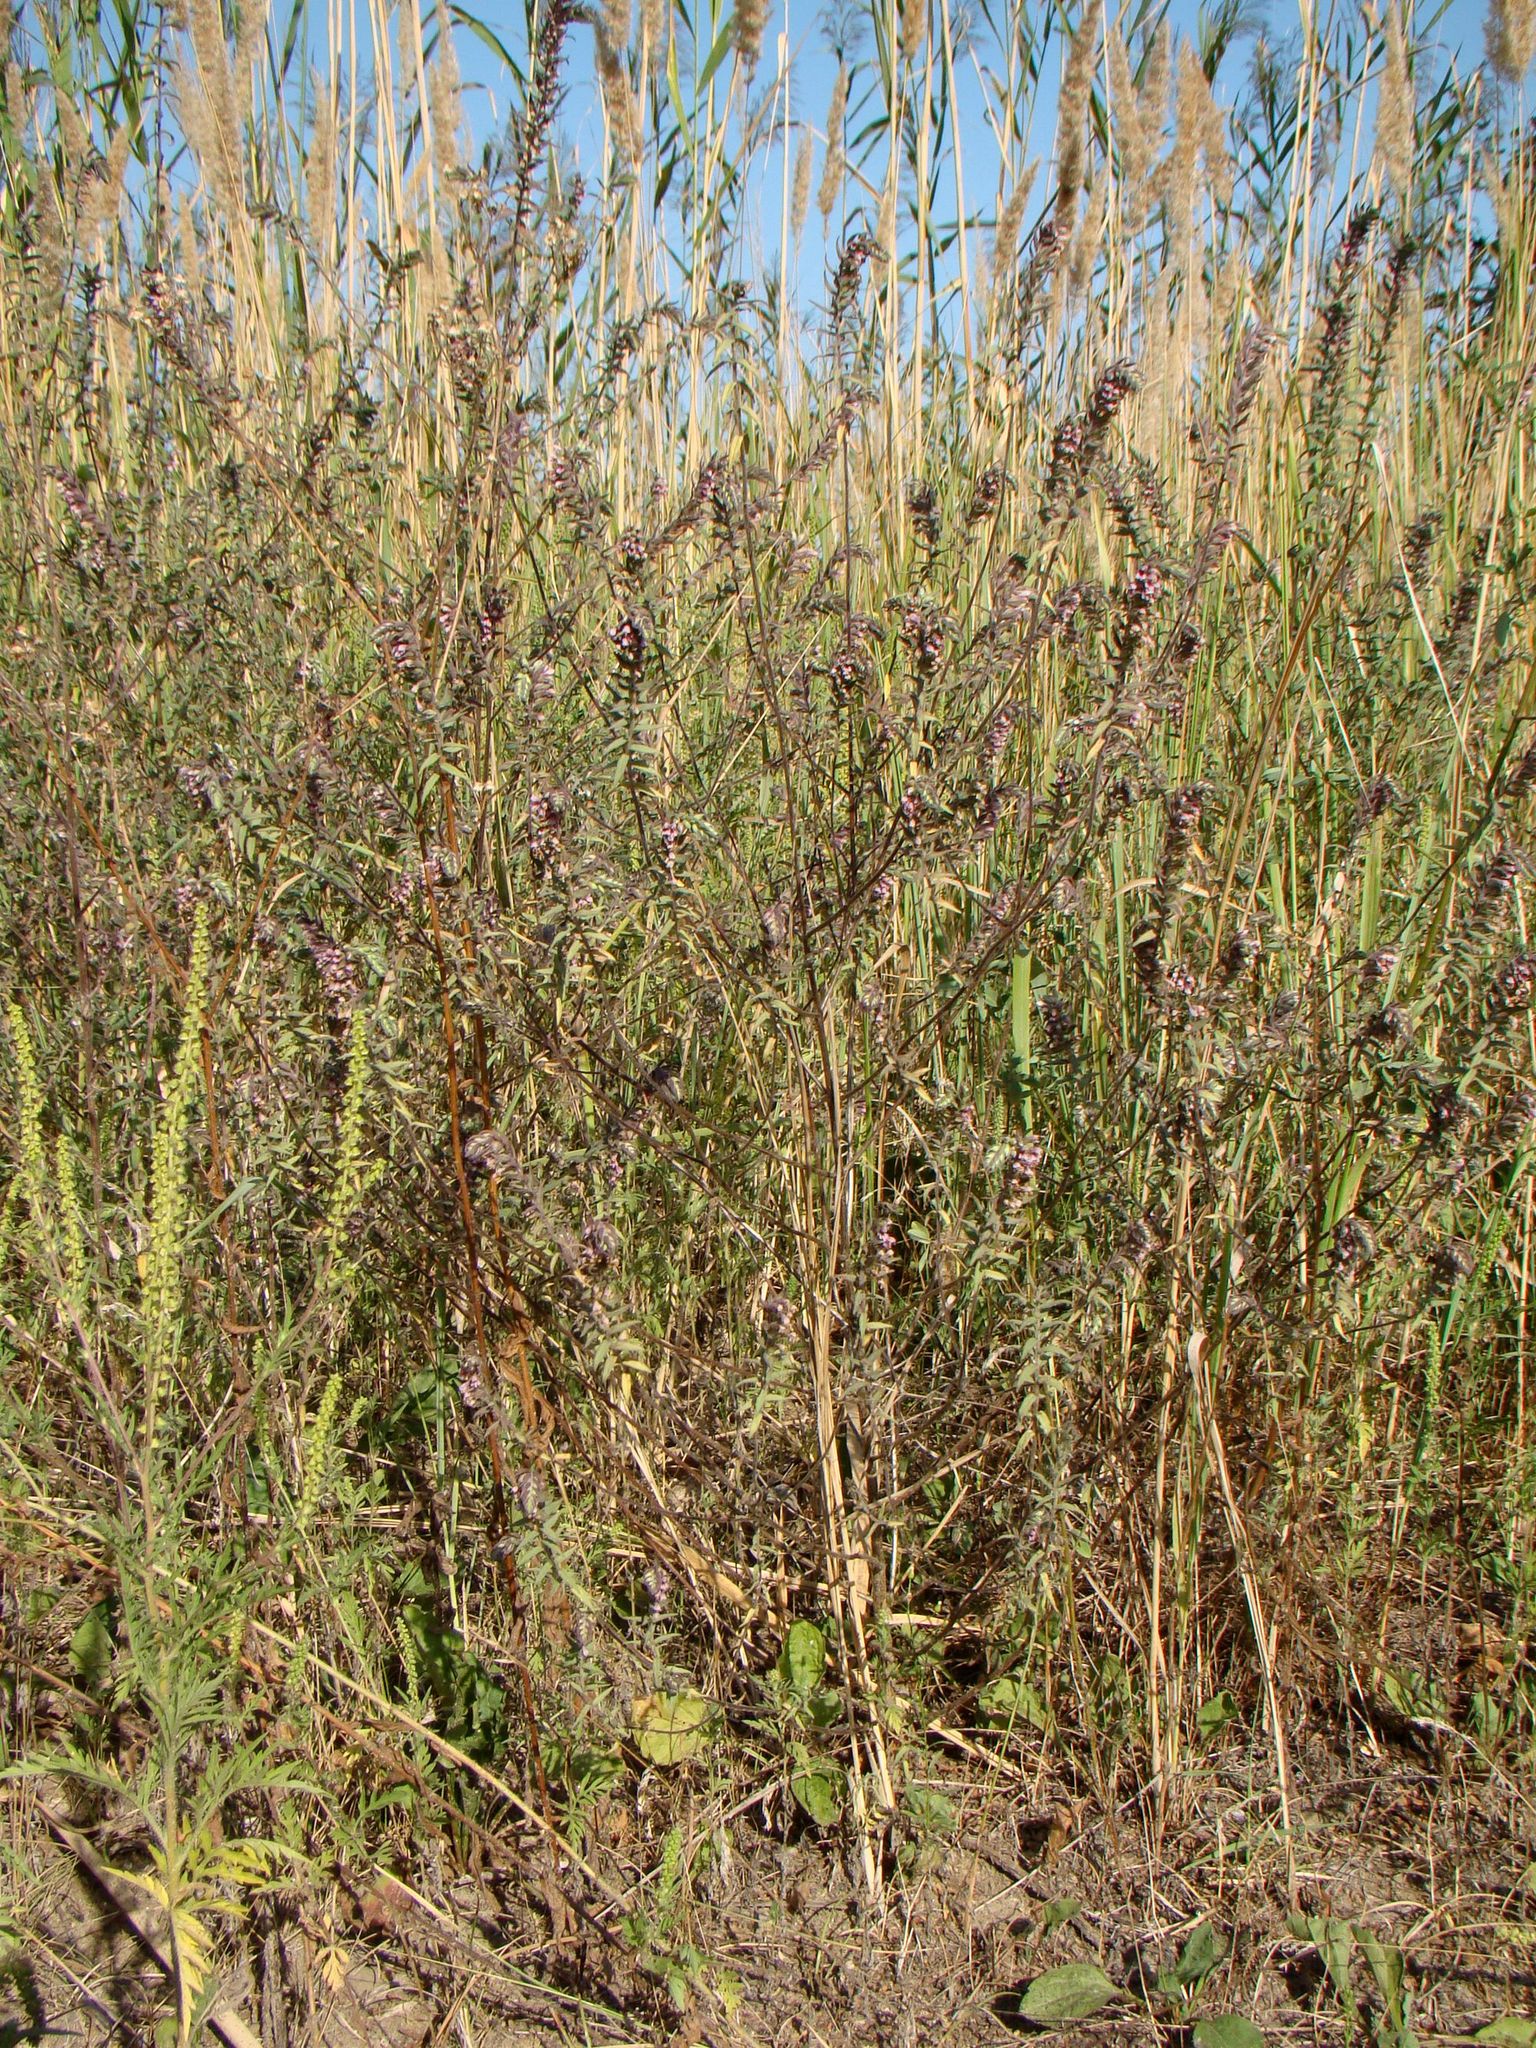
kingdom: Plantae
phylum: Tracheophyta
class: Magnoliopsida
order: Lamiales
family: Orobanchaceae
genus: Odontites
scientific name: Odontites vulgaris
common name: Broomrape
